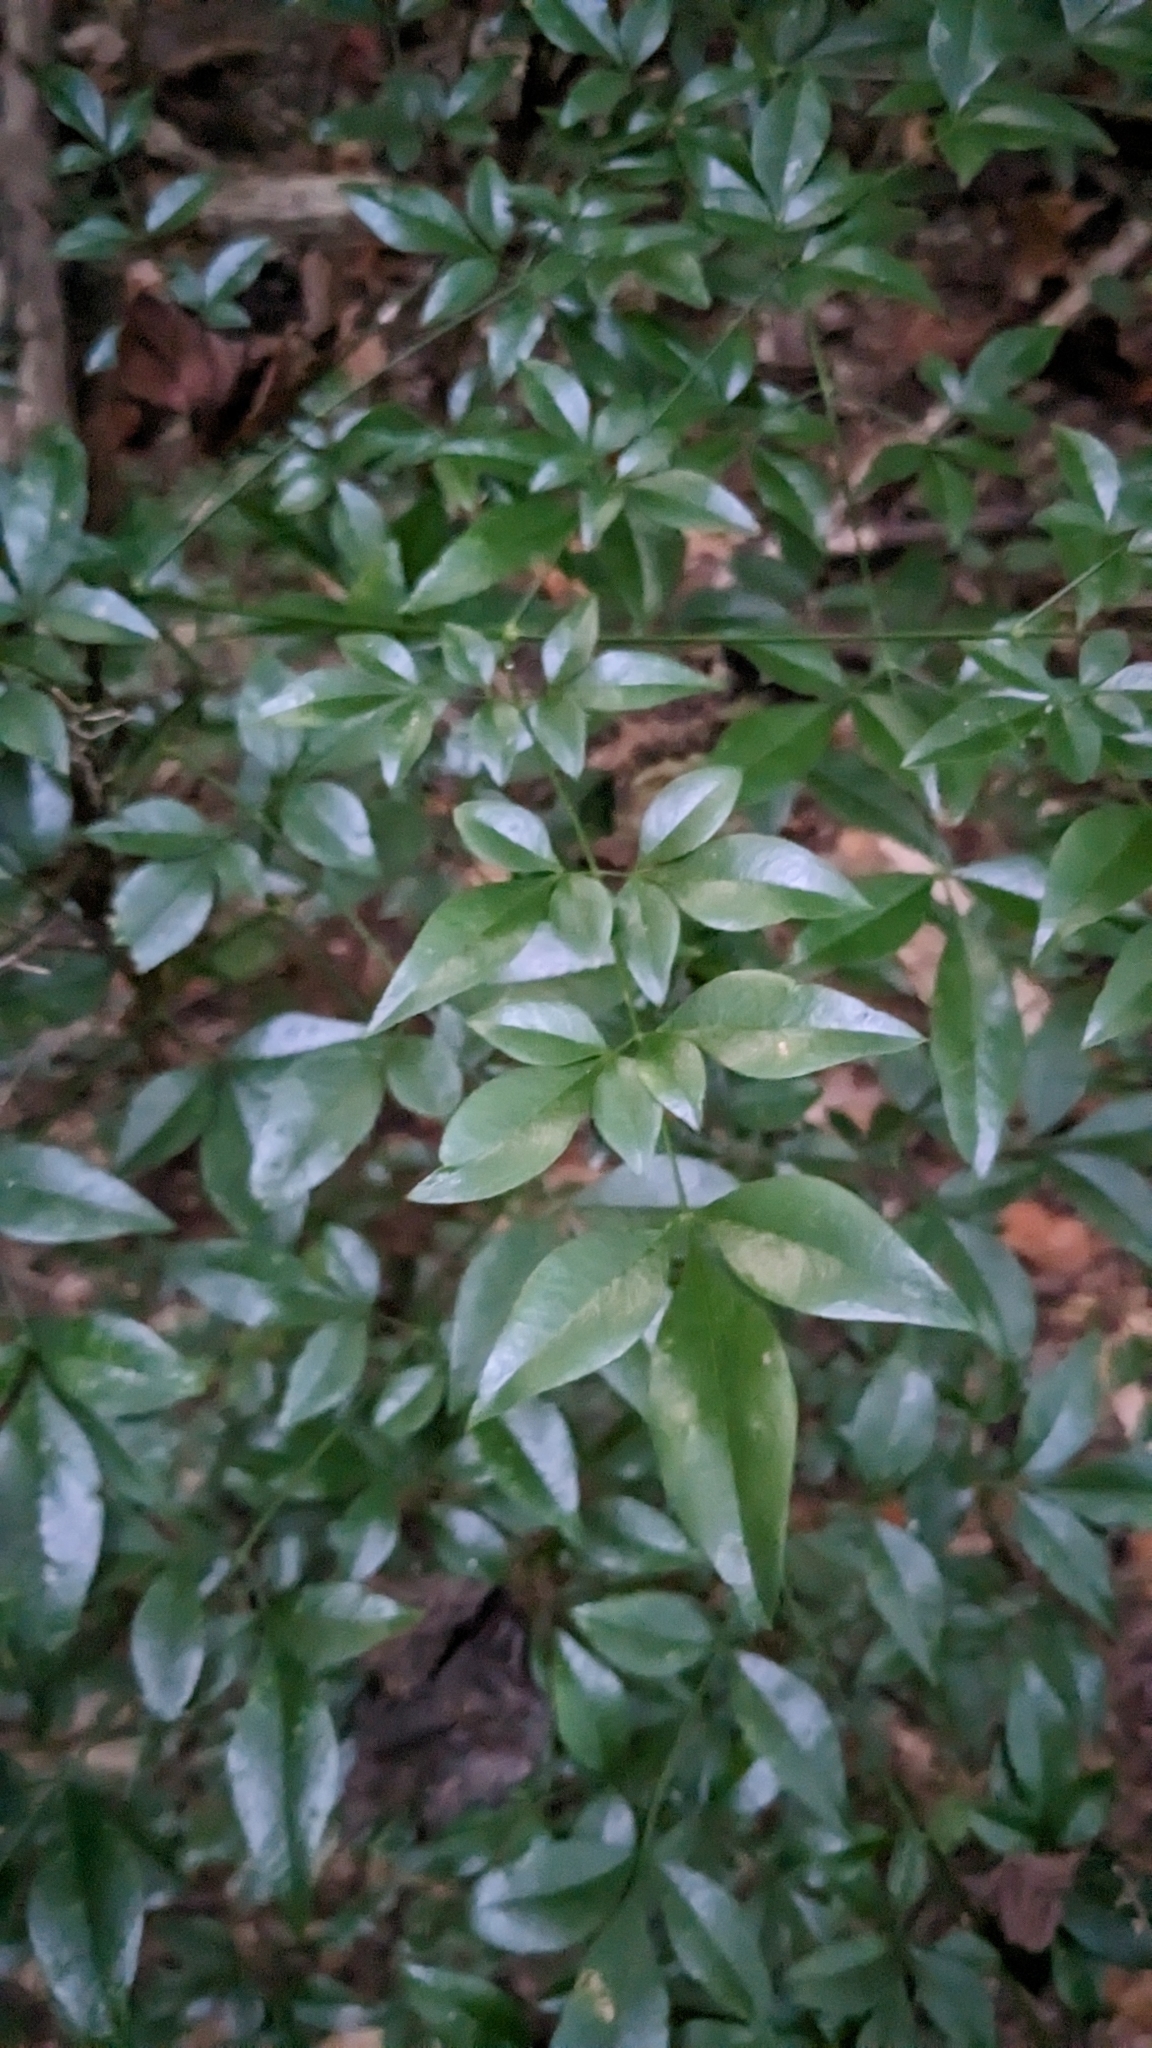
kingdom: Plantae
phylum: Tracheophyta
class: Magnoliopsida
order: Ranunculales
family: Berberidaceae
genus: Nandina
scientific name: Nandina domestica
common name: Sacred bamboo
